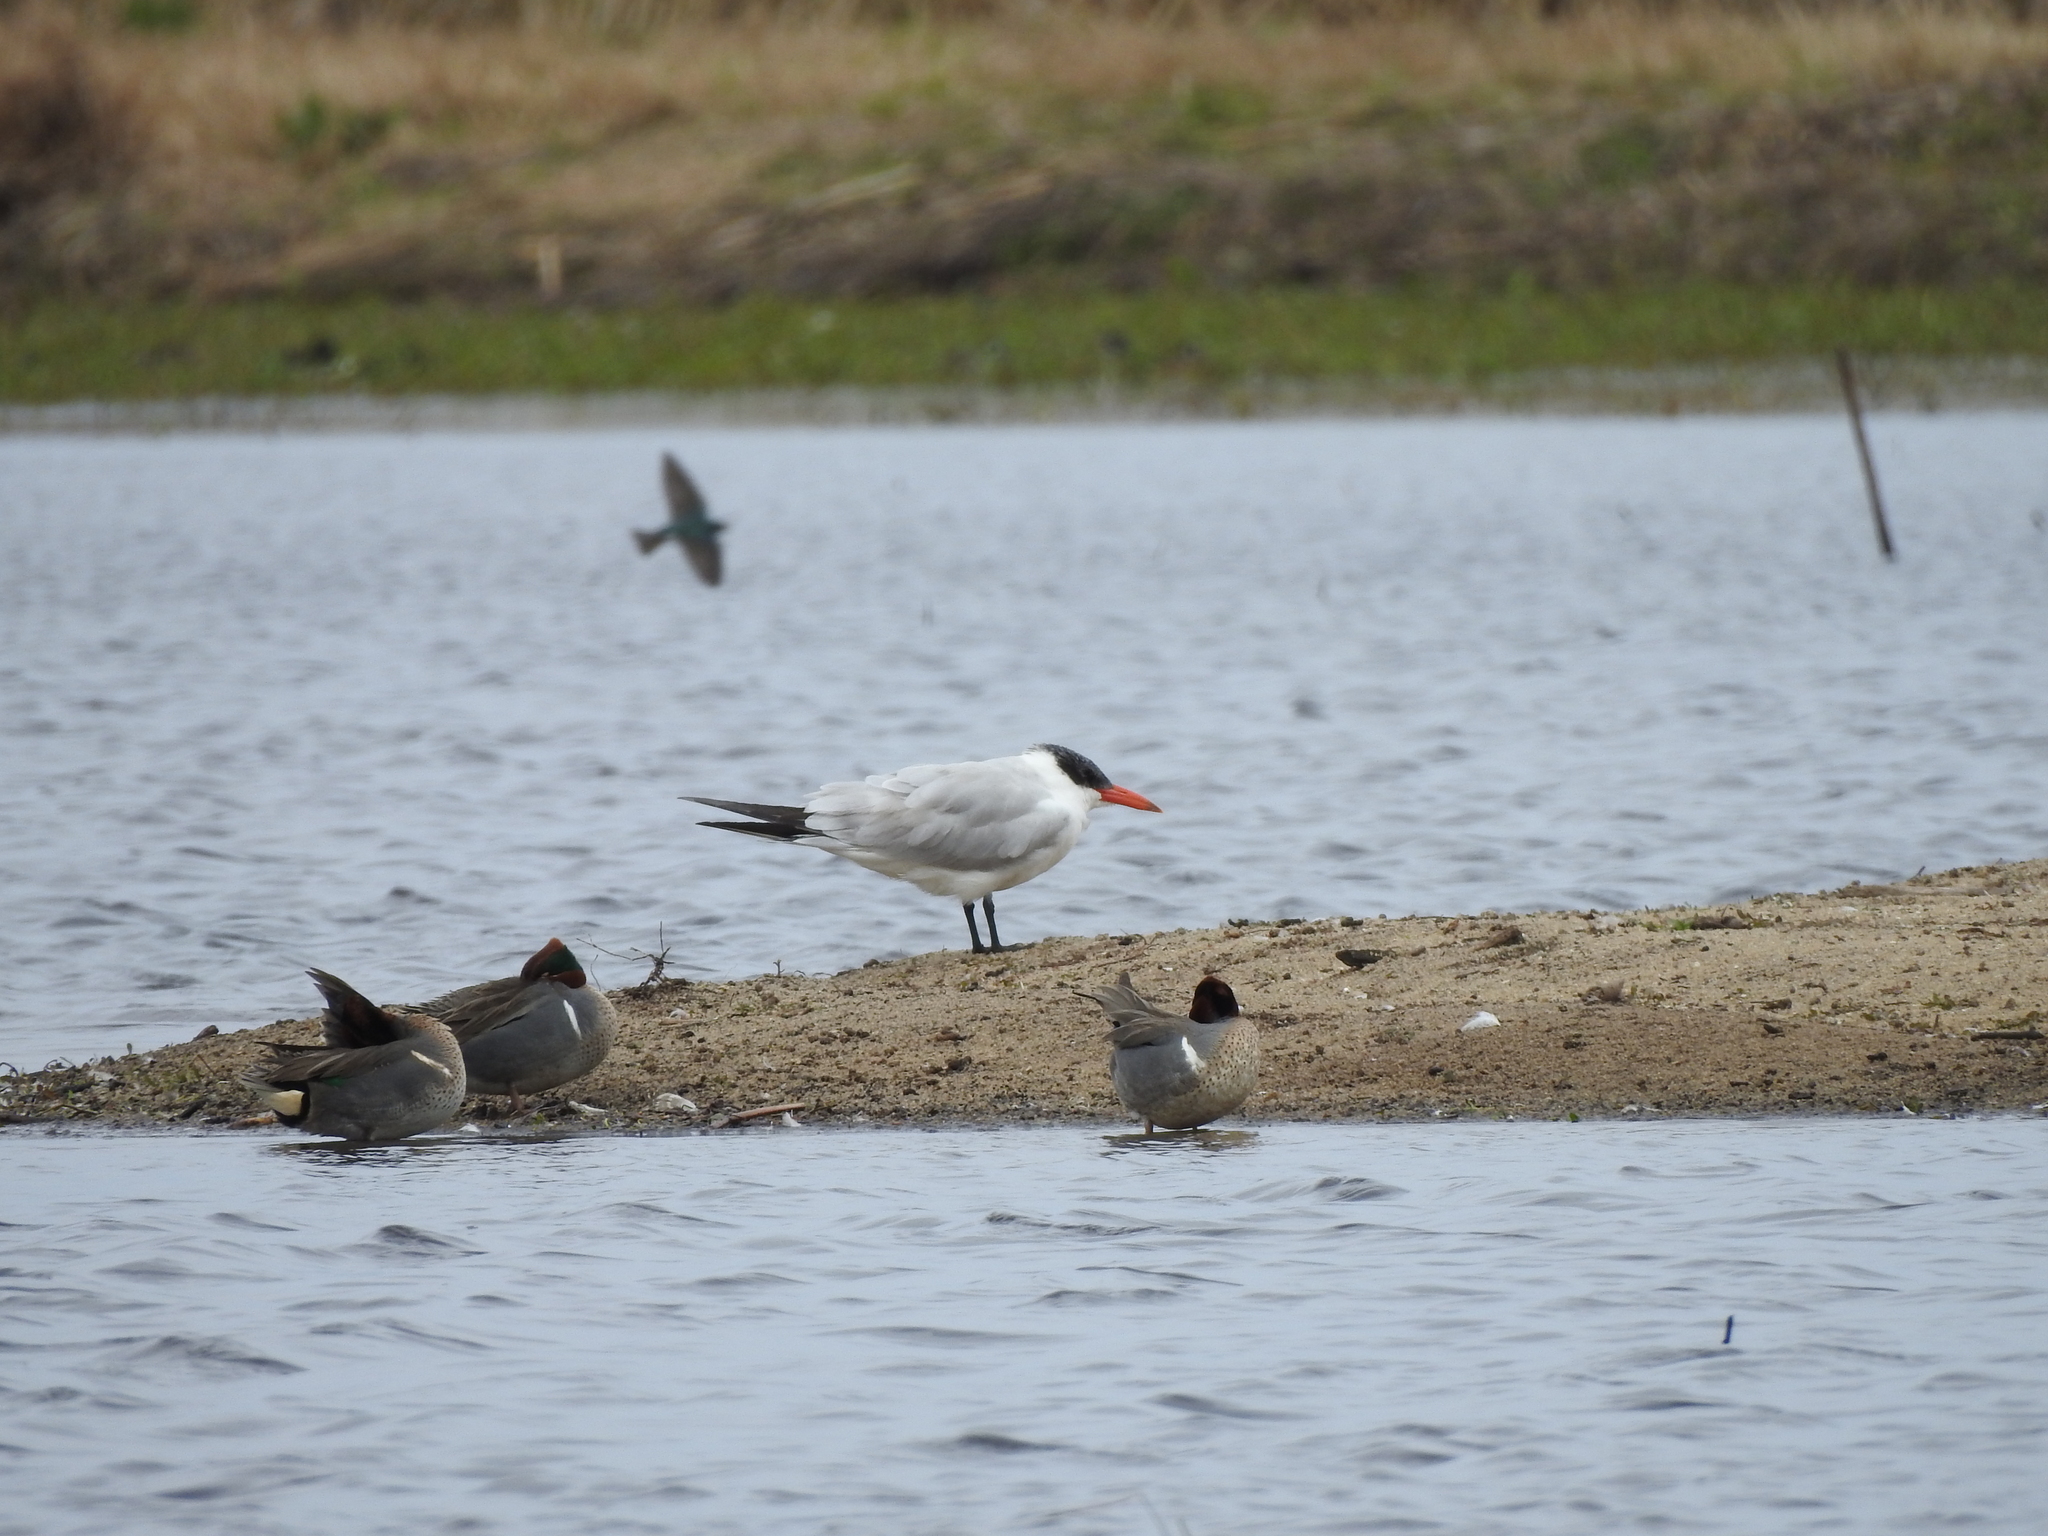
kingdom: Animalia
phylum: Chordata
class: Aves
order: Anseriformes
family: Anatidae
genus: Anas
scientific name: Anas crecca
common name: Eurasian teal
